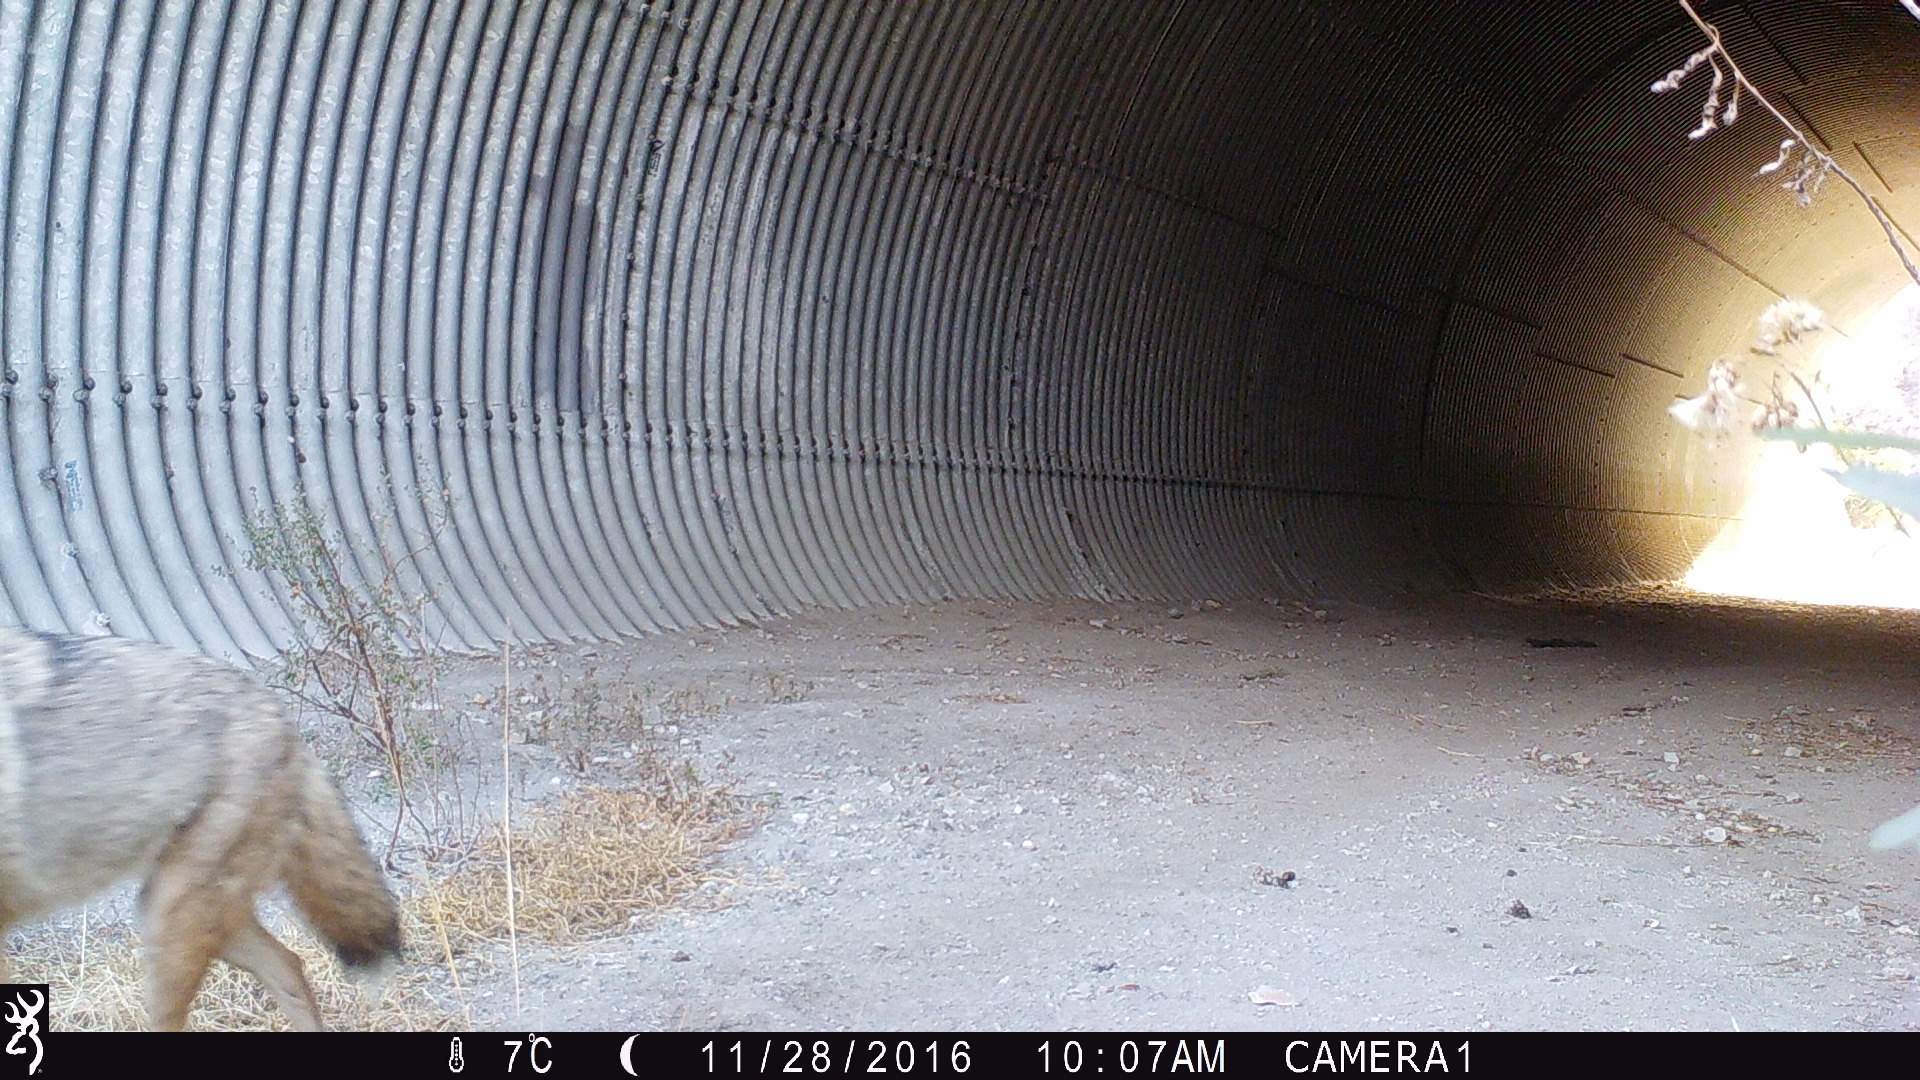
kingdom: Animalia
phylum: Chordata
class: Mammalia
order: Carnivora
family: Canidae
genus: Canis
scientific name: Canis latrans
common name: Coyote
